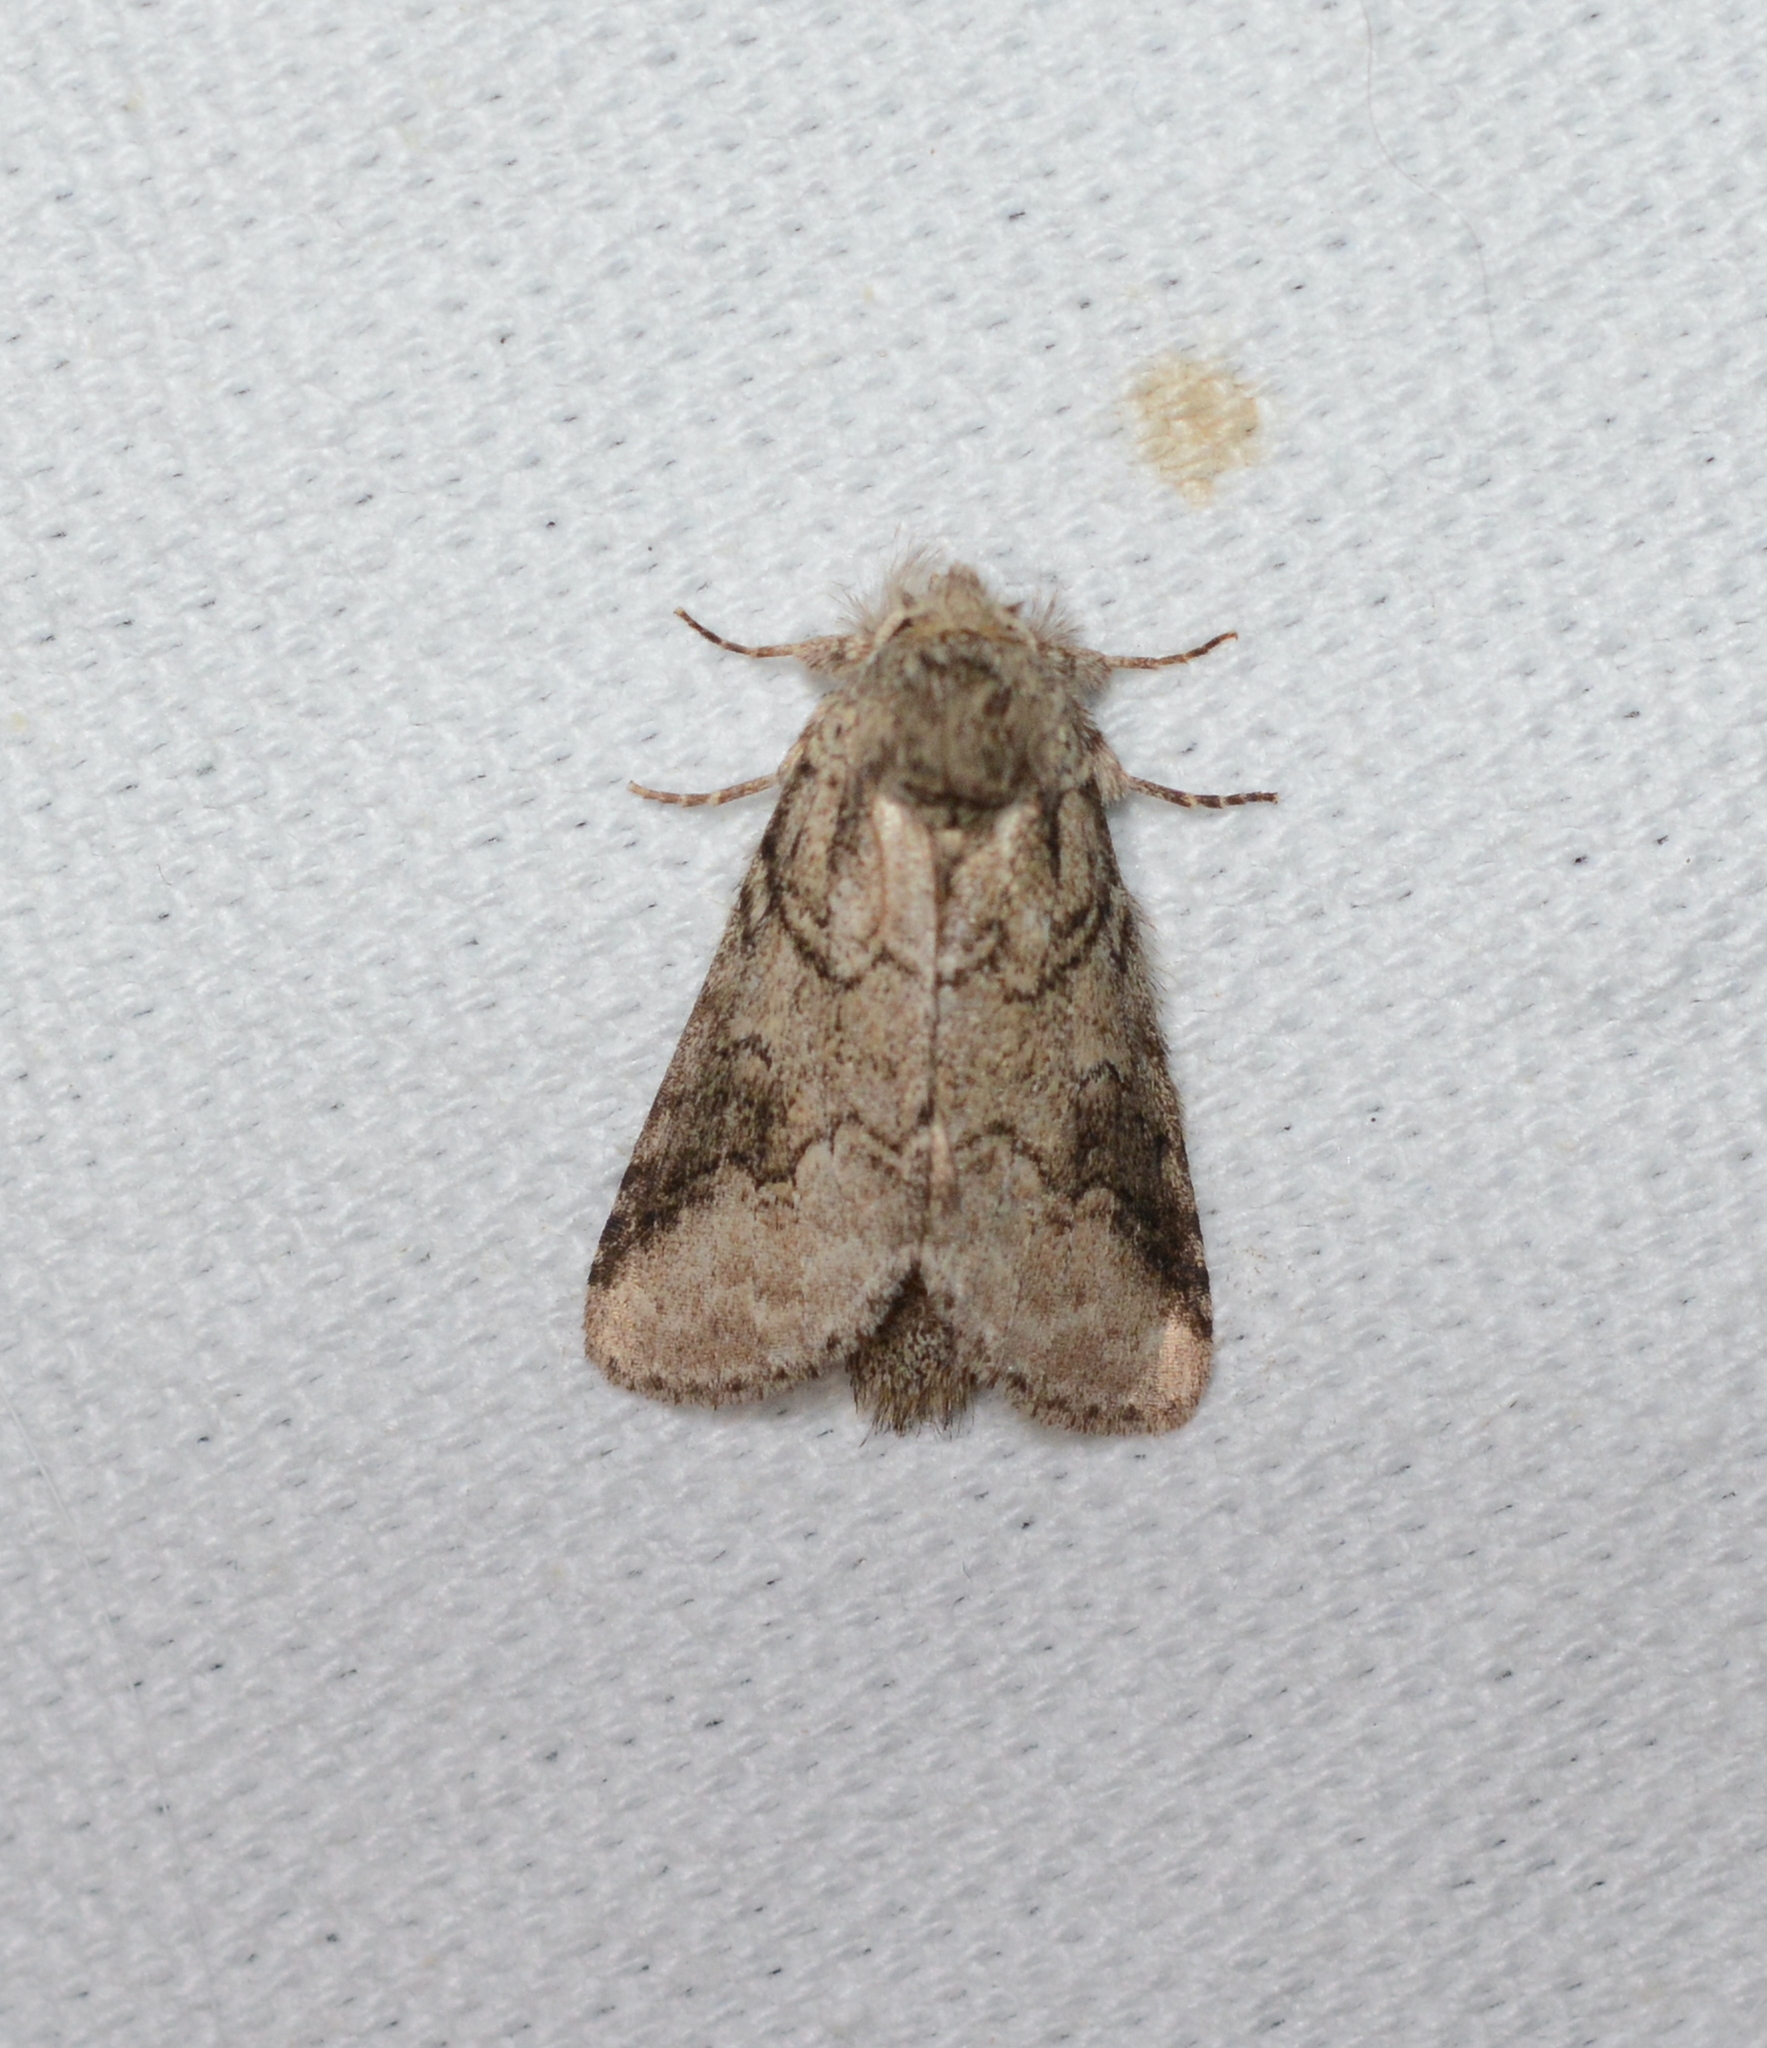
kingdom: Animalia
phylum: Arthropoda
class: Insecta
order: Lepidoptera
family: Notodontidae
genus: Lochmaeus
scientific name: Lochmaeus bilineata
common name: Double-lined prominent
